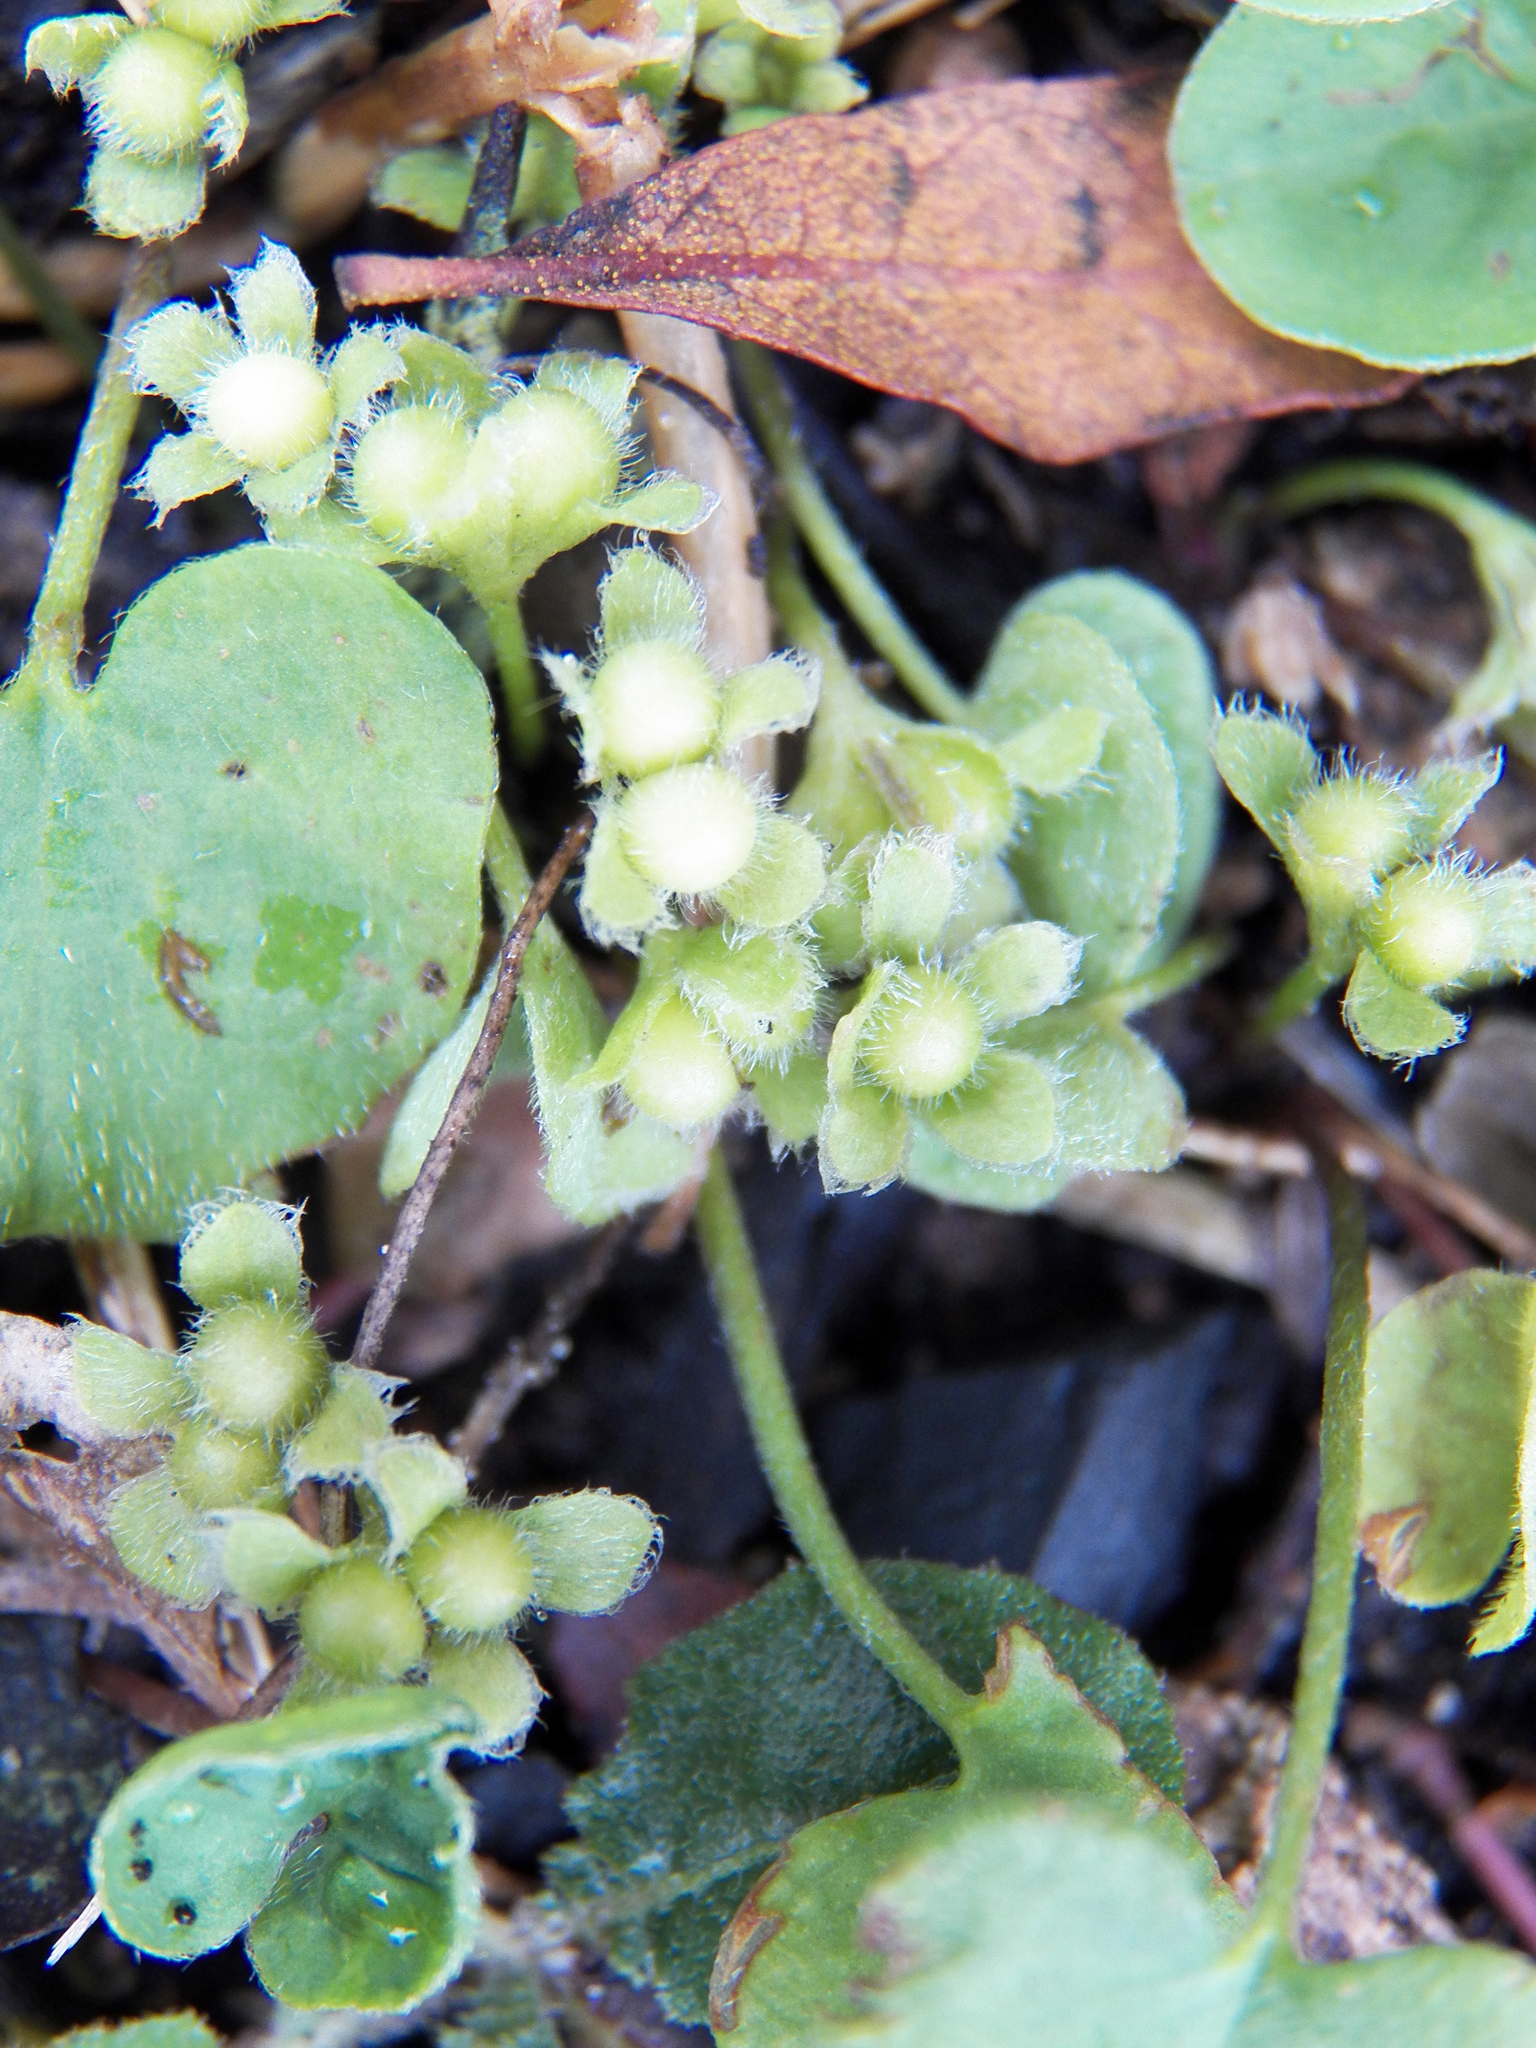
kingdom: Plantae
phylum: Tracheophyta
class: Magnoliopsida
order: Solanales
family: Convolvulaceae
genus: Dichondra
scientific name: Dichondra carolinensis
